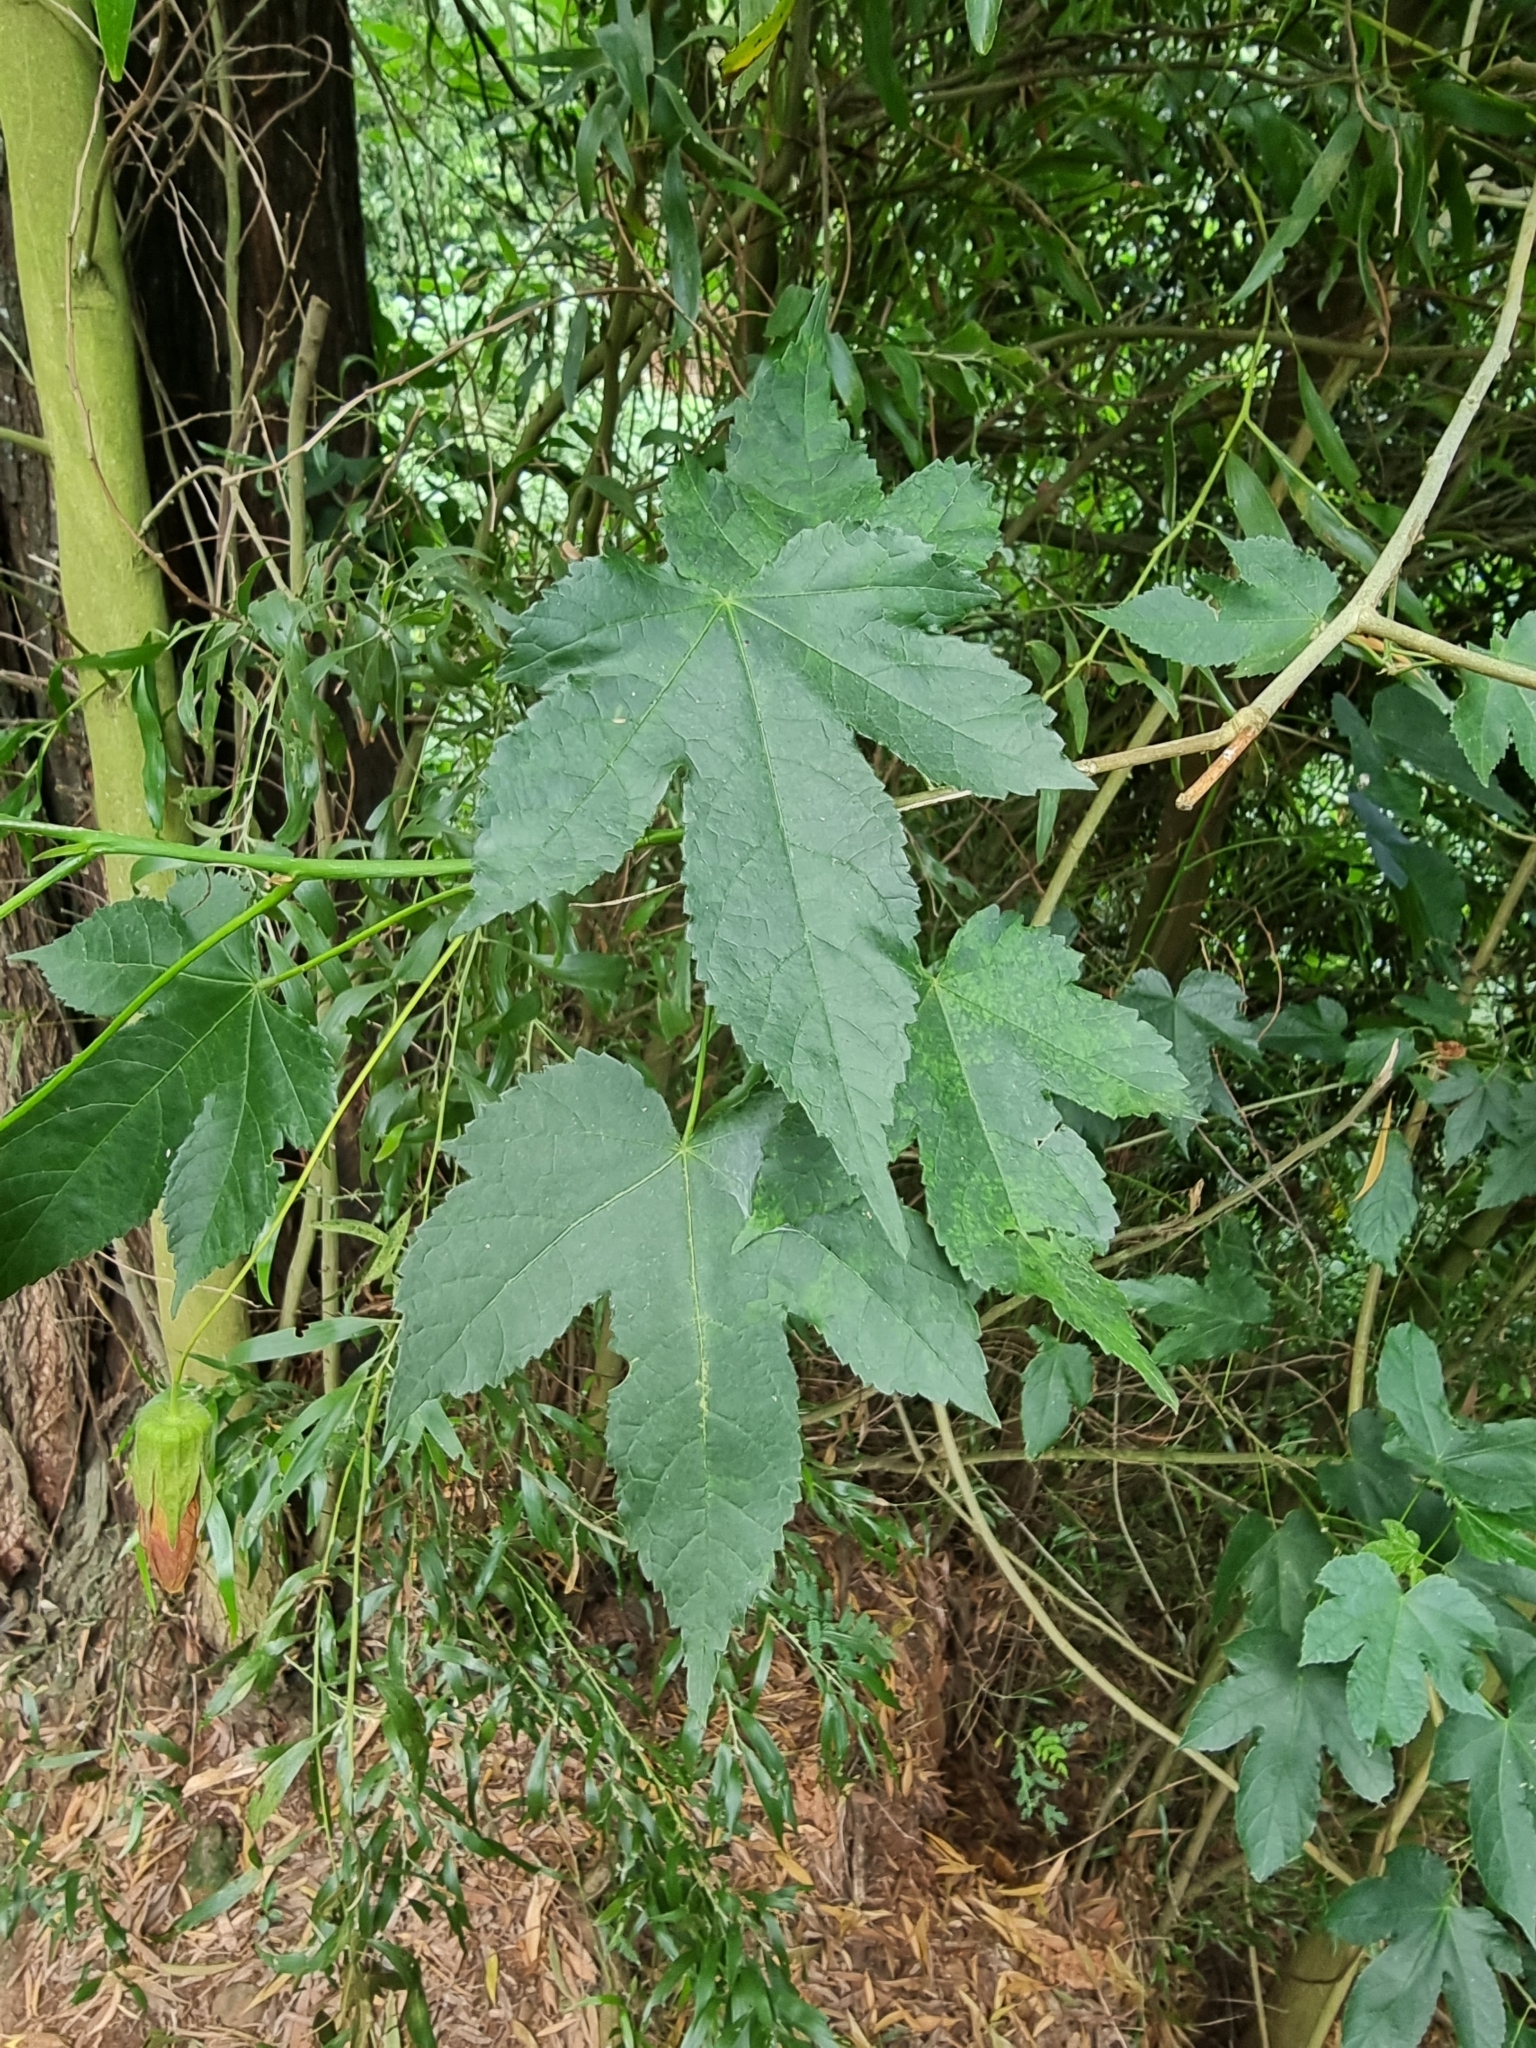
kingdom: Plantae
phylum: Tracheophyta
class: Magnoliopsida
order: Malvales
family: Malvaceae
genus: Callianthe
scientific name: Callianthe picta
